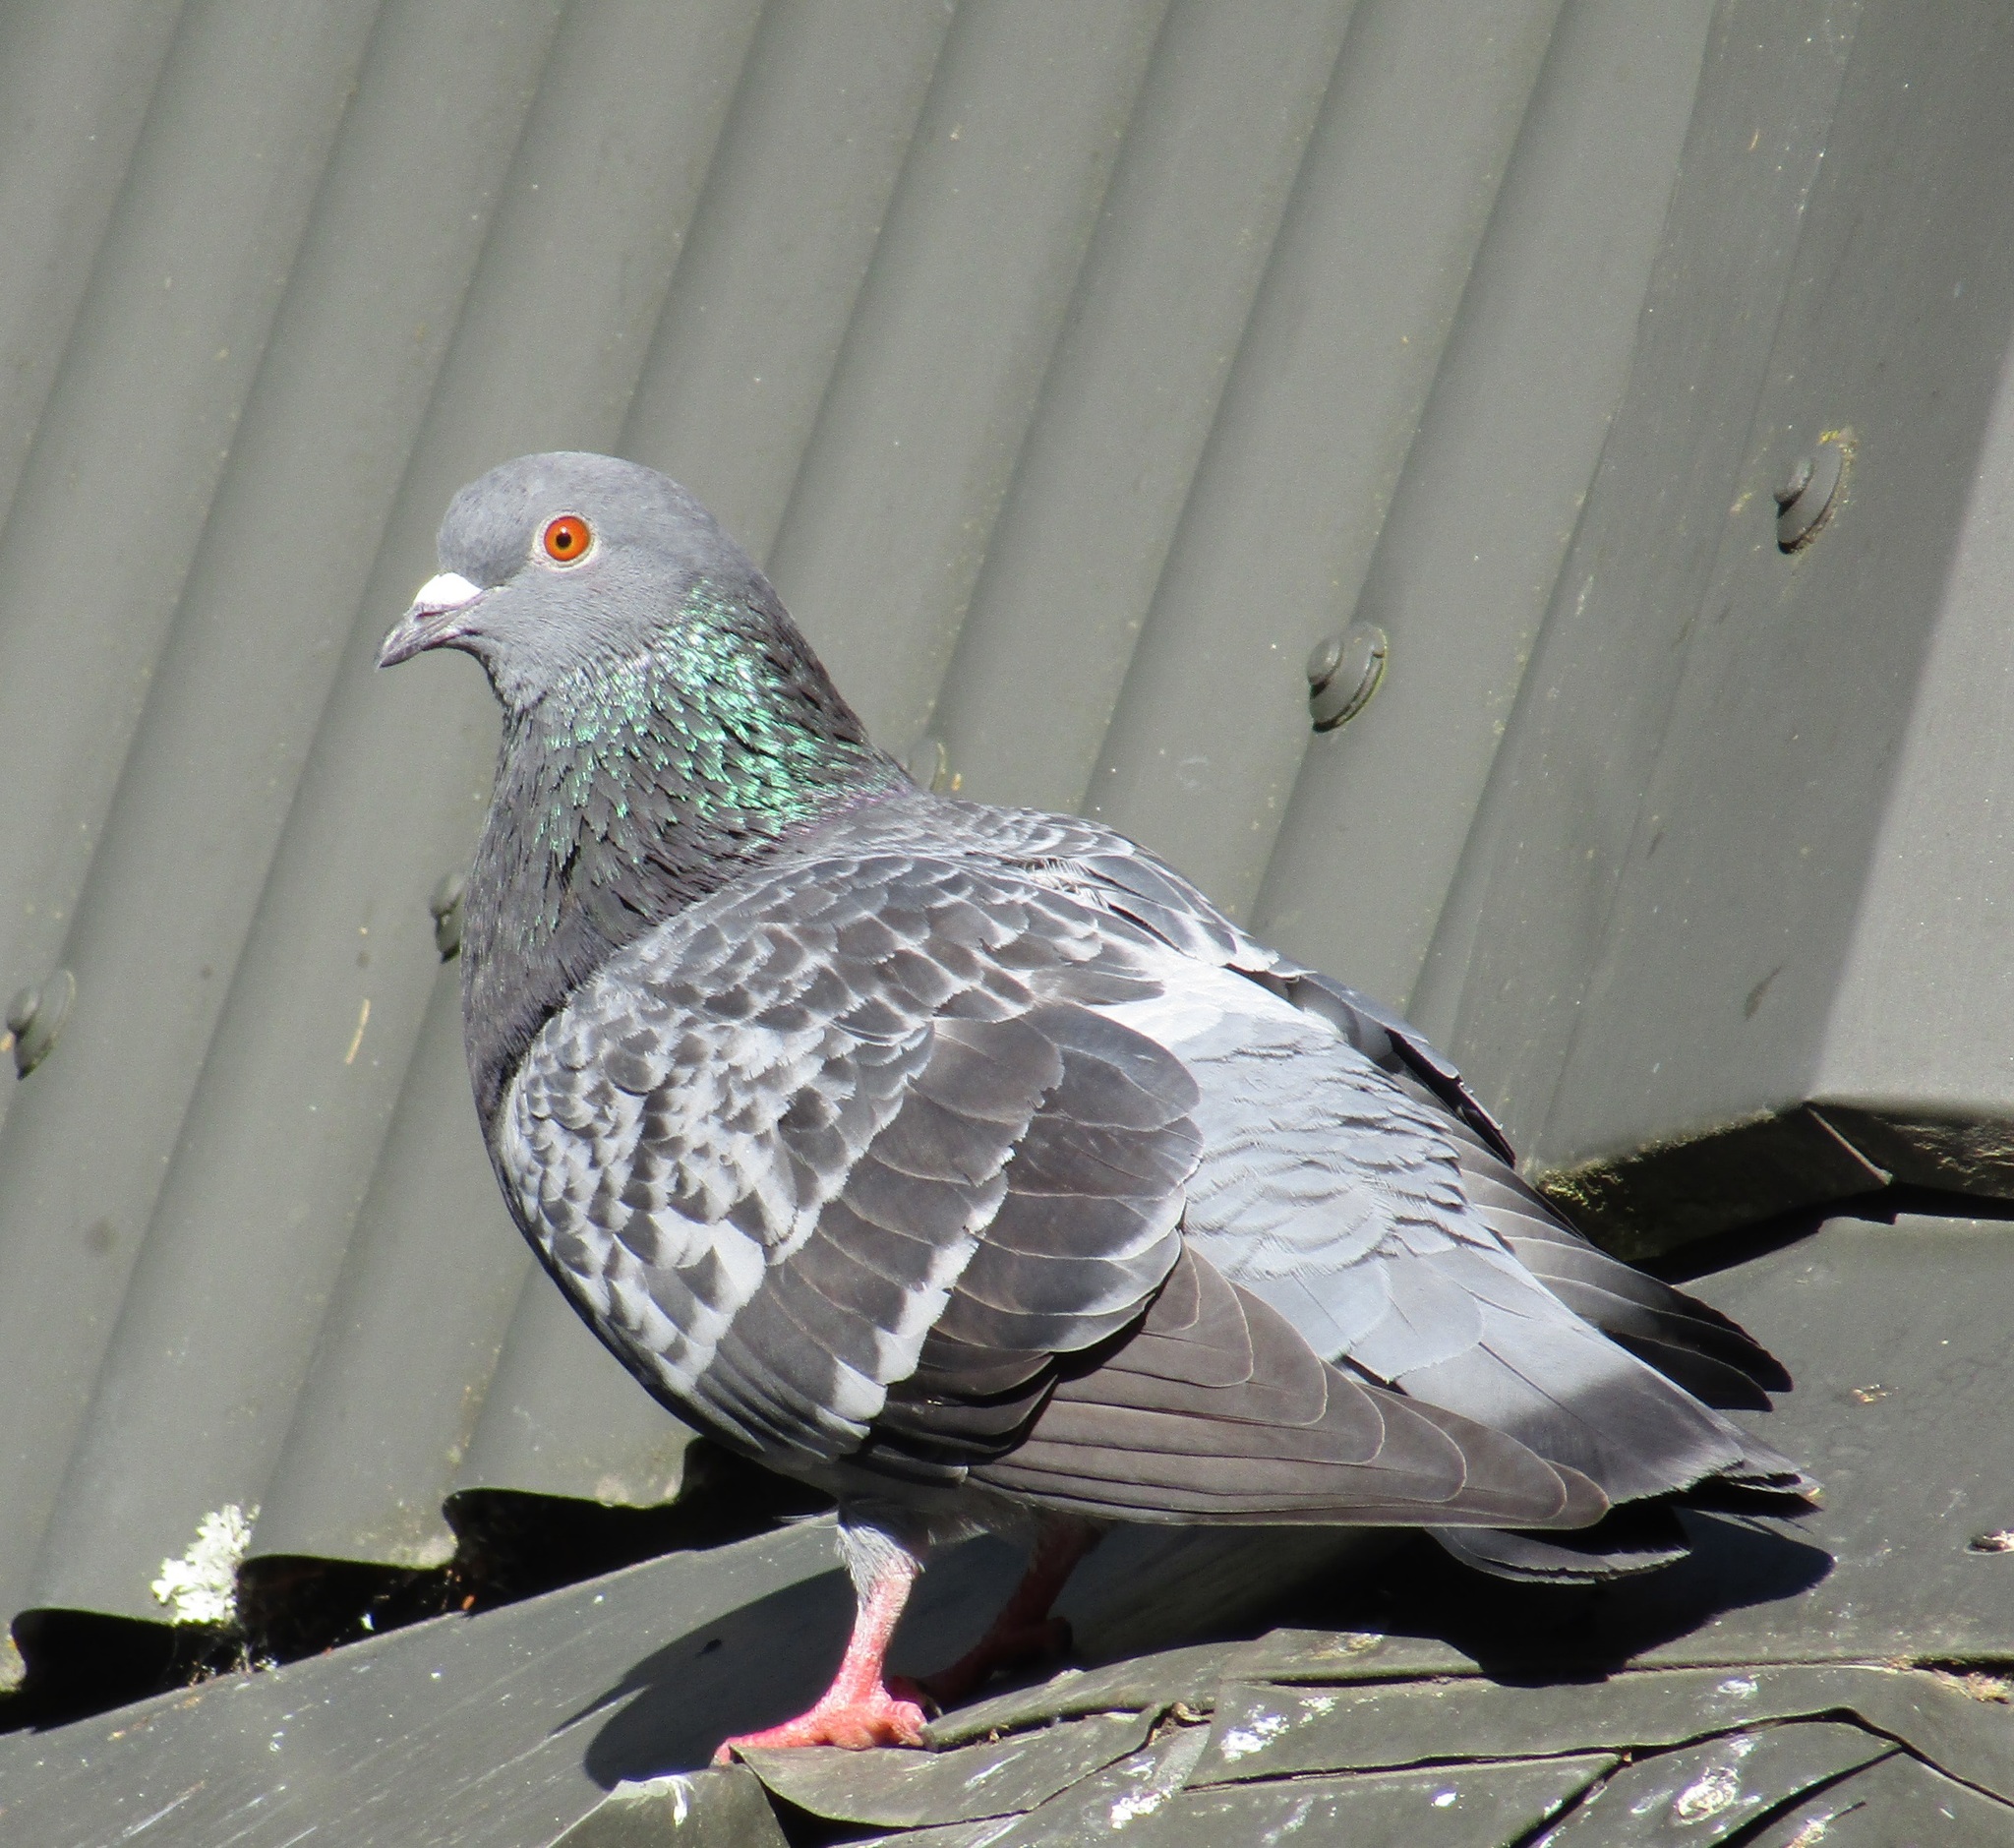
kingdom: Animalia
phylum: Chordata
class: Aves
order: Columbiformes
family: Columbidae
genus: Columba
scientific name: Columba livia
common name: Rock pigeon
